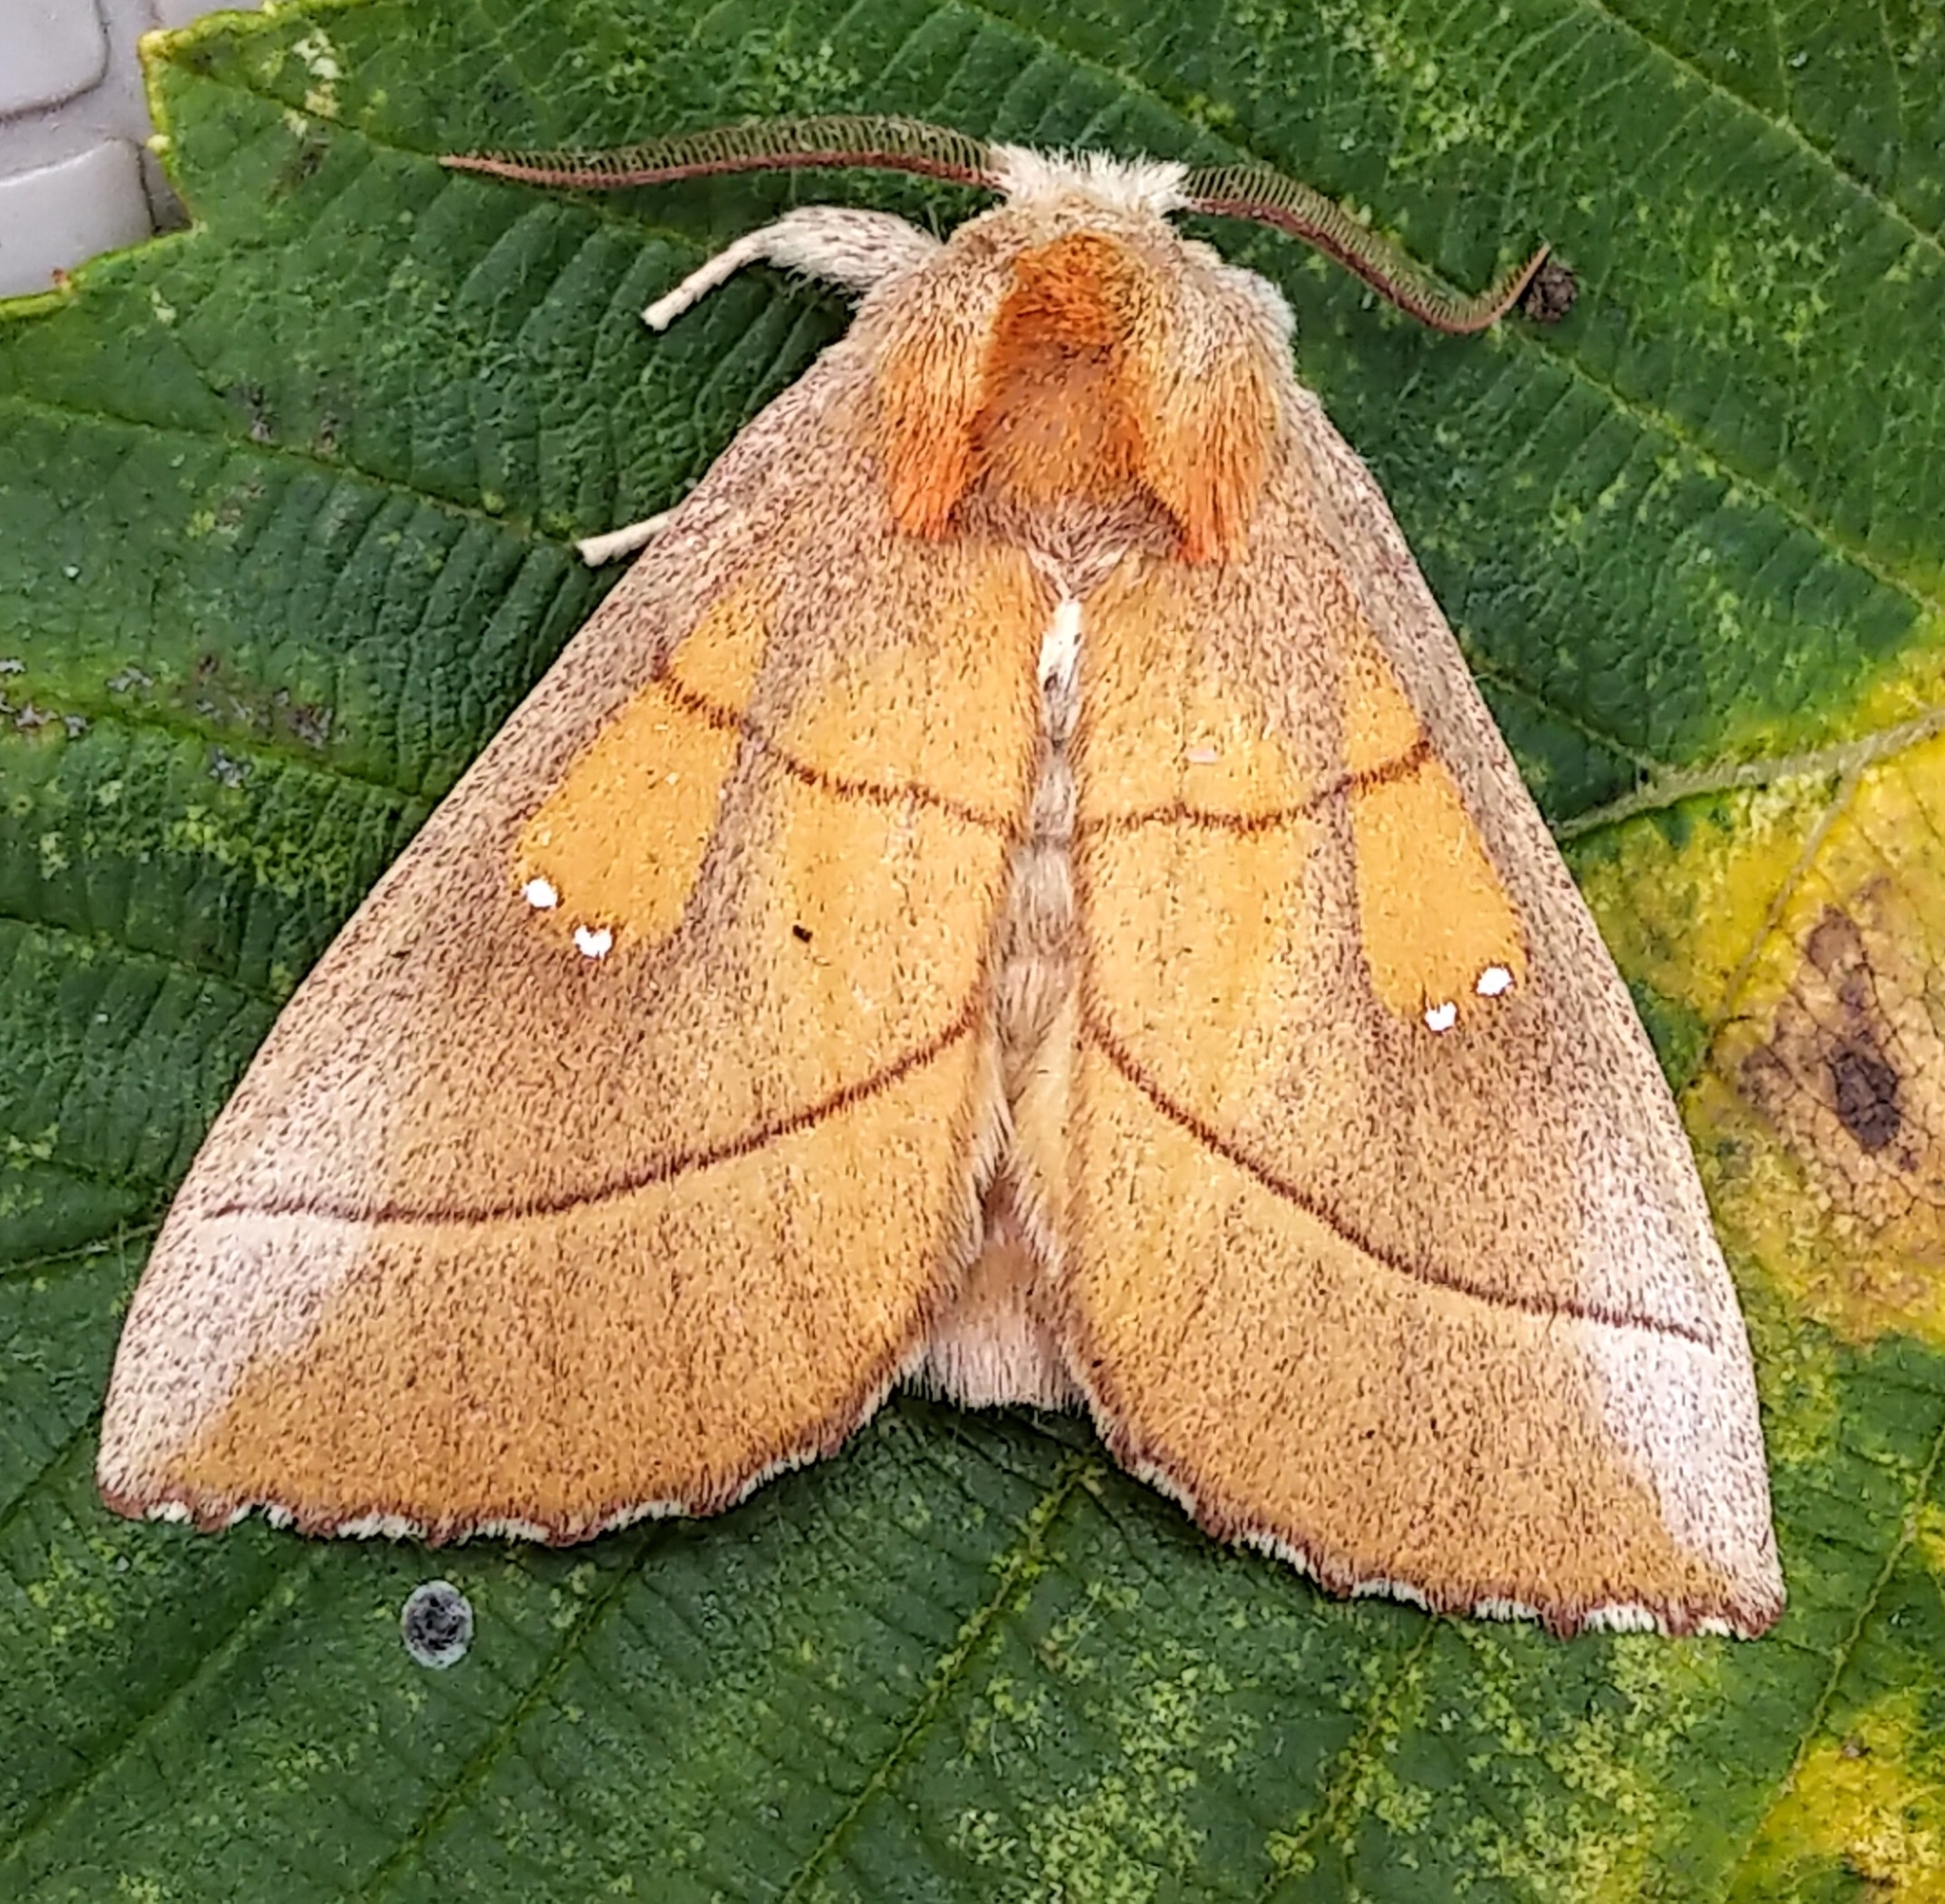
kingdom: Animalia
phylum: Arthropoda
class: Insecta
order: Lepidoptera
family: Notodontidae
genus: Nadata
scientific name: Nadata gibbosa
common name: White-dotted prominent
